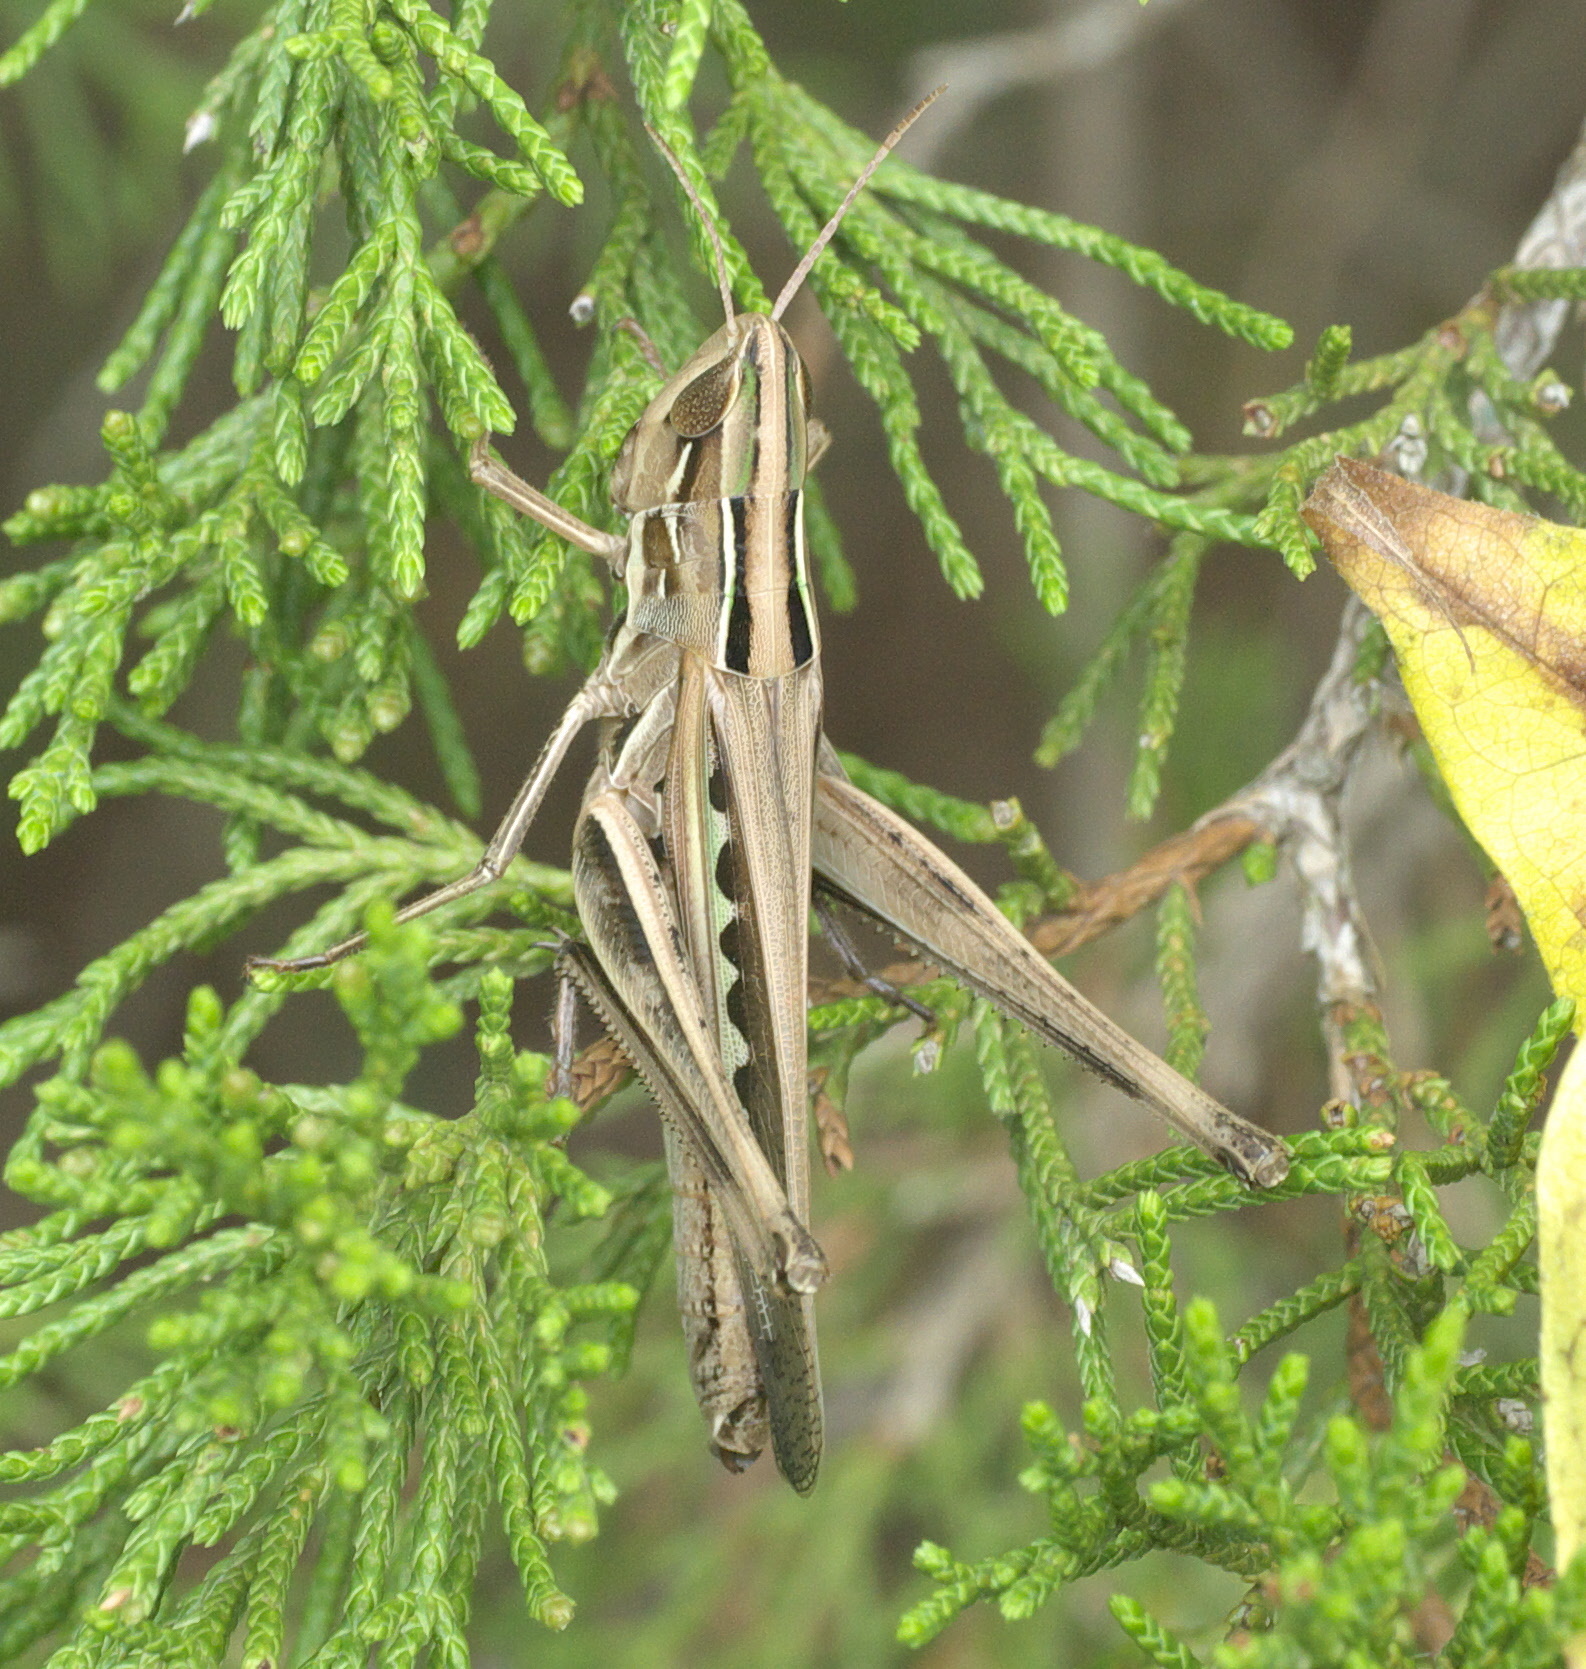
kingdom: Animalia
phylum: Arthropoda
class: Insecta
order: Orthoptera
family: Acrididae
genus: Syrbula
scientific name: Syrbula admirabilis
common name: Handsome grasshopper
